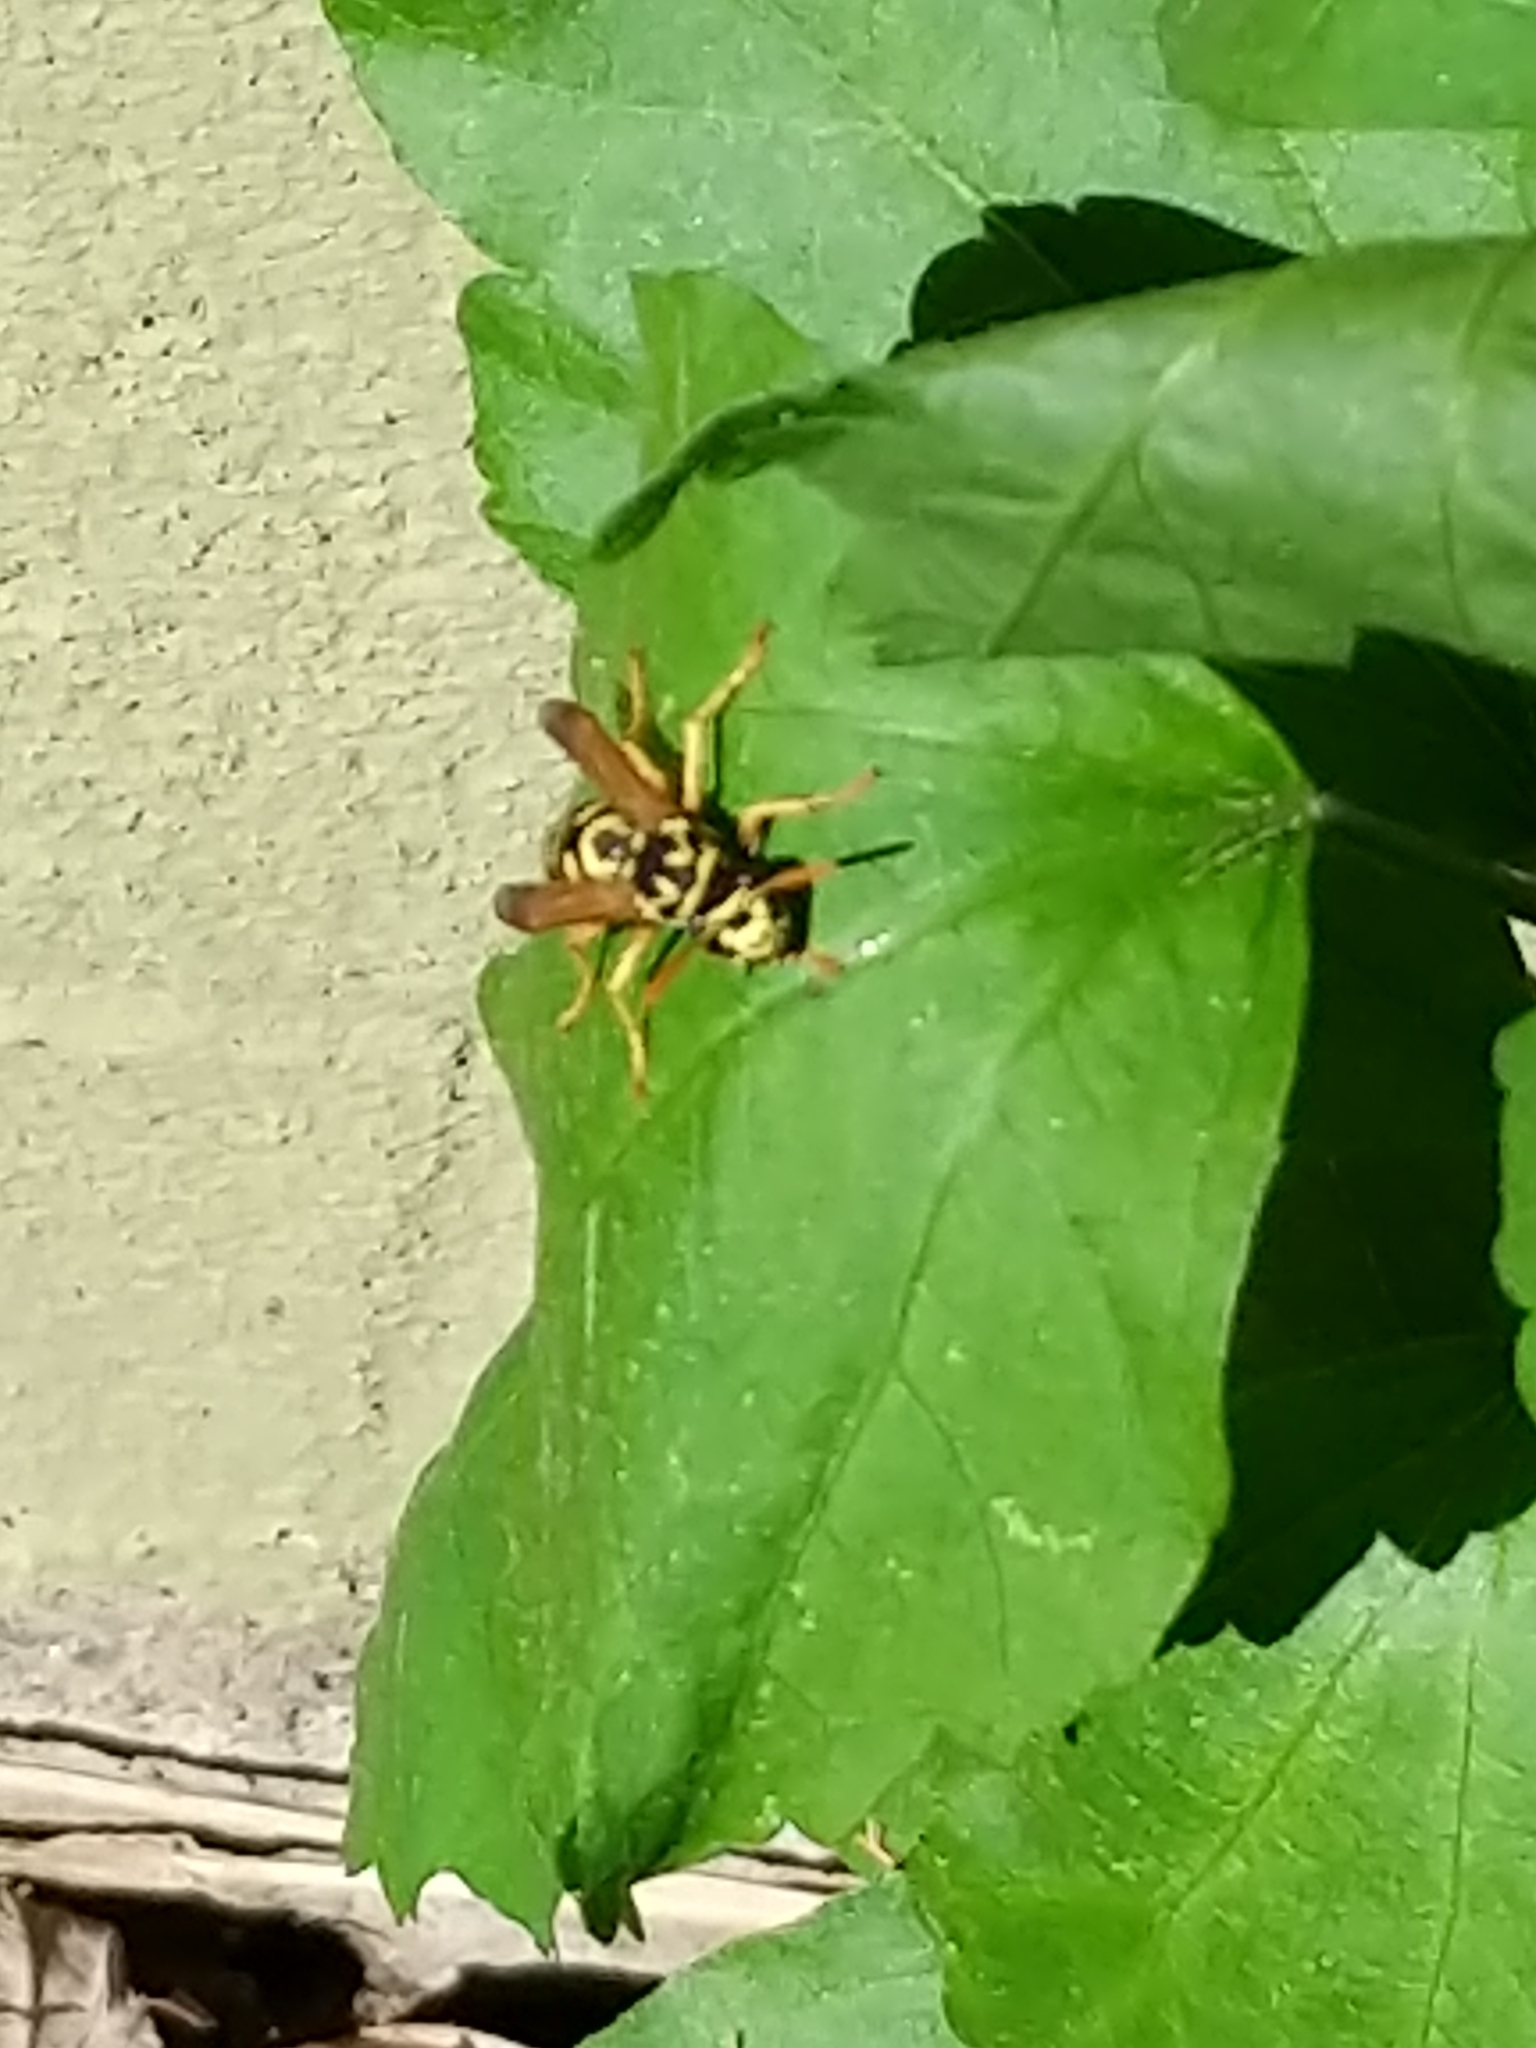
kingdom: Animalia
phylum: Arthropoda
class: Insecta
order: Hymenoptera
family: Eumenidae
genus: Polistes
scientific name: Polistes dominula
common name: Paper wasp
